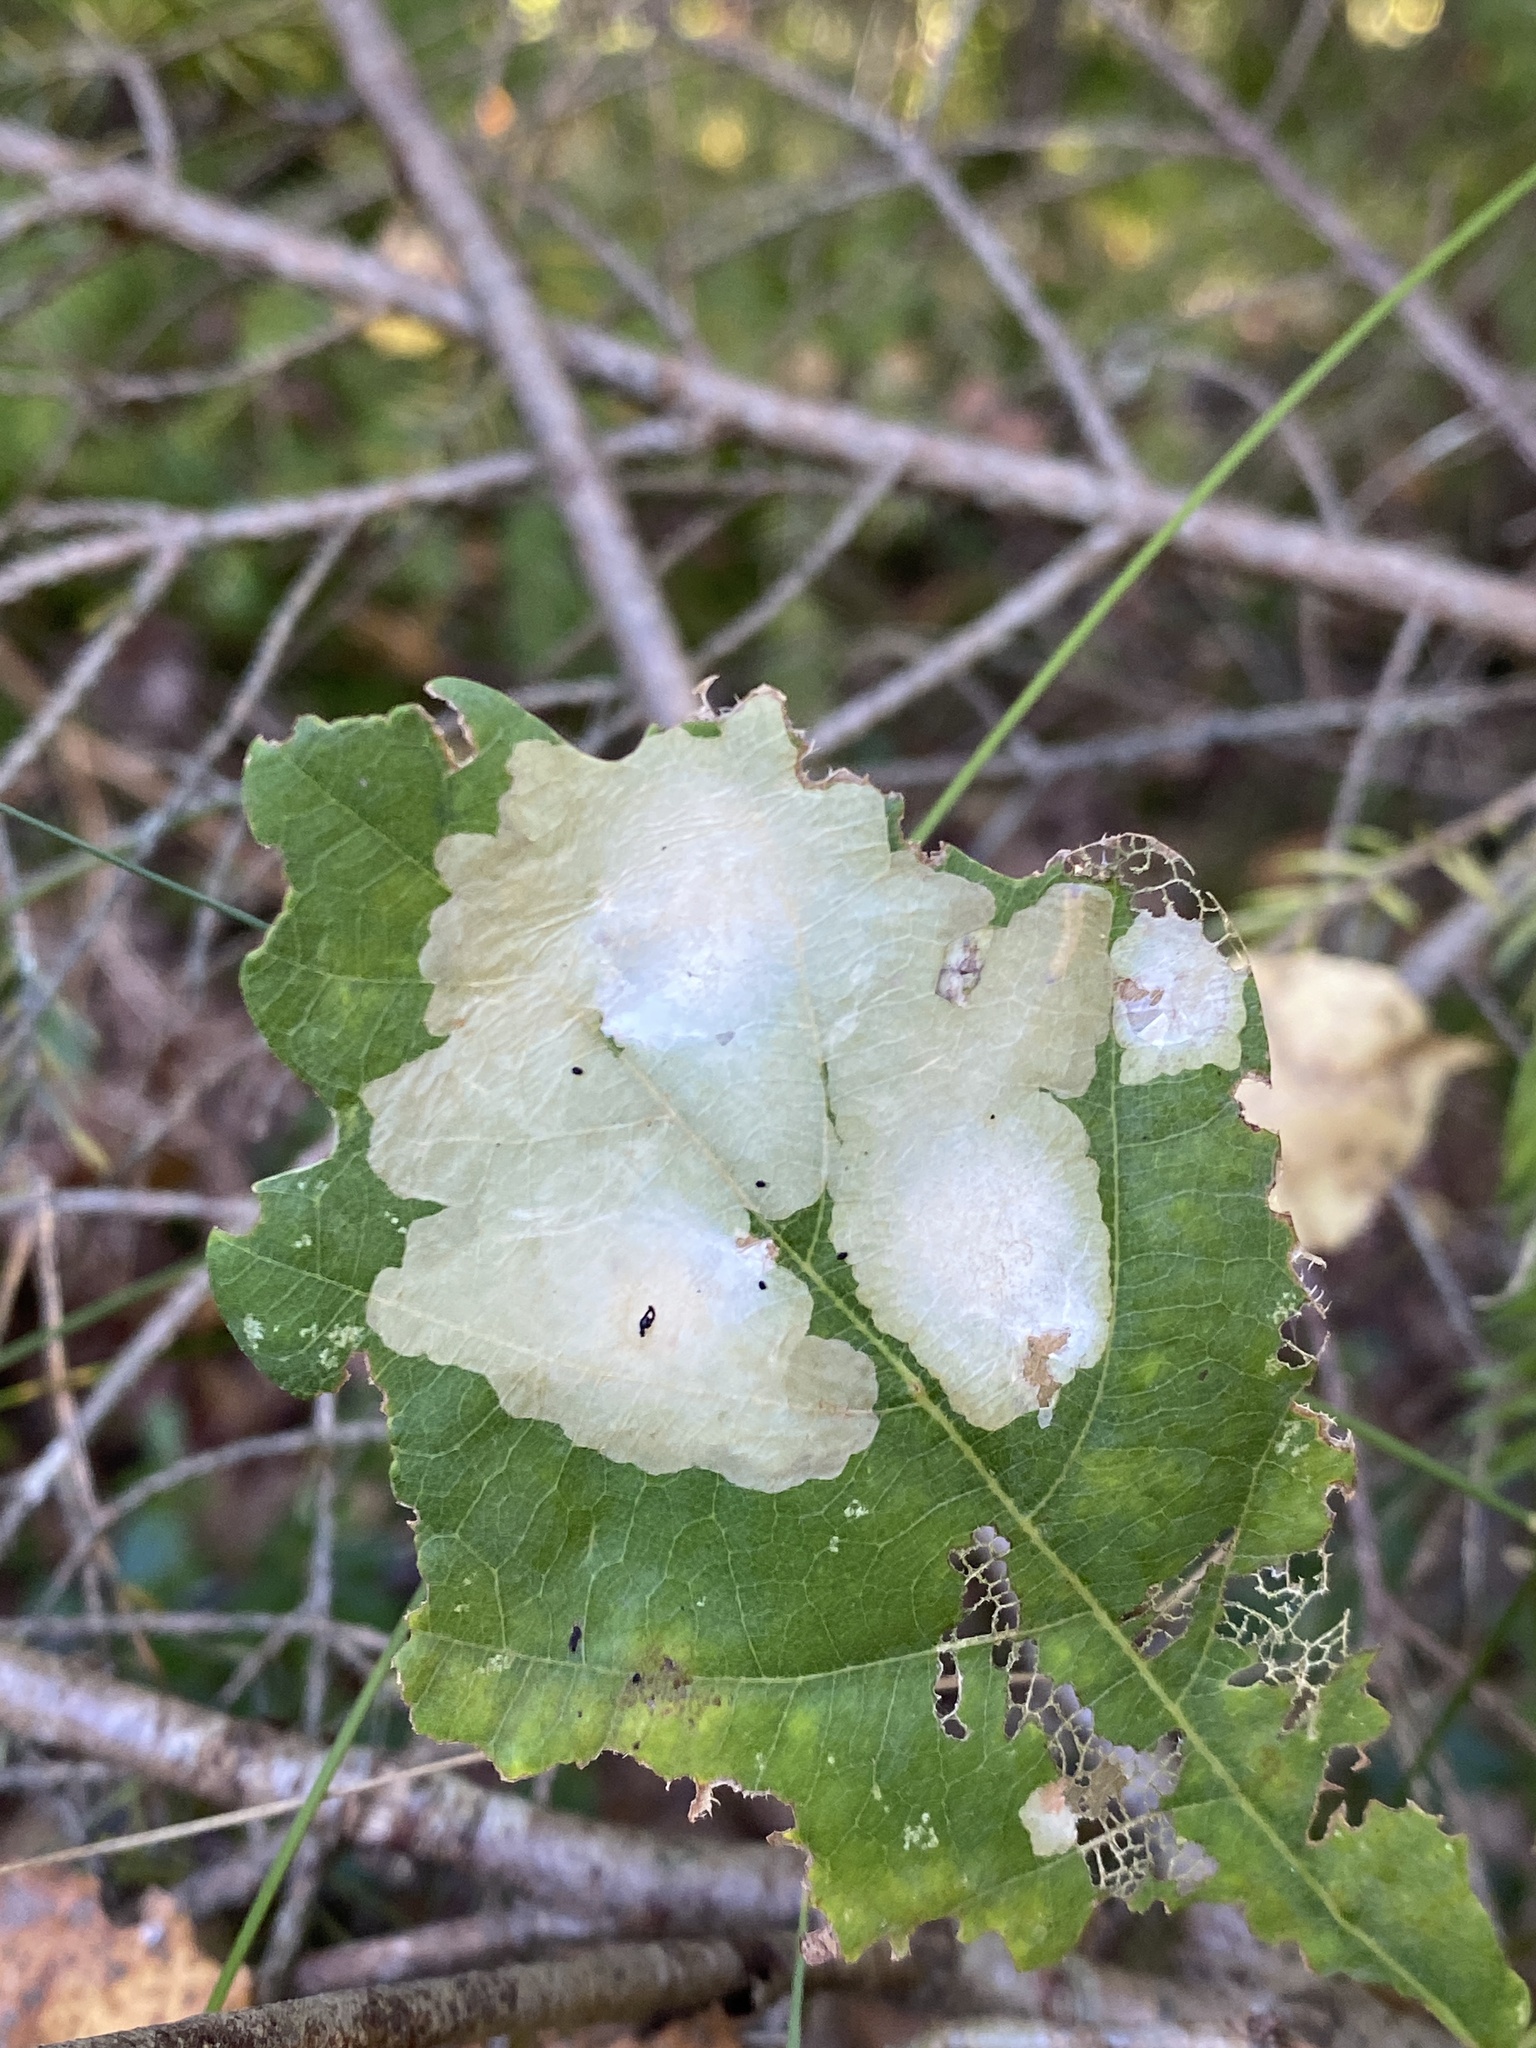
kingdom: Animalia
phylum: Arthropoda
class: Insecta
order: Lepidoptera
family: Tischeriidae
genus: Tischeria
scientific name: Tischeria ekebladella
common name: Oak carl
